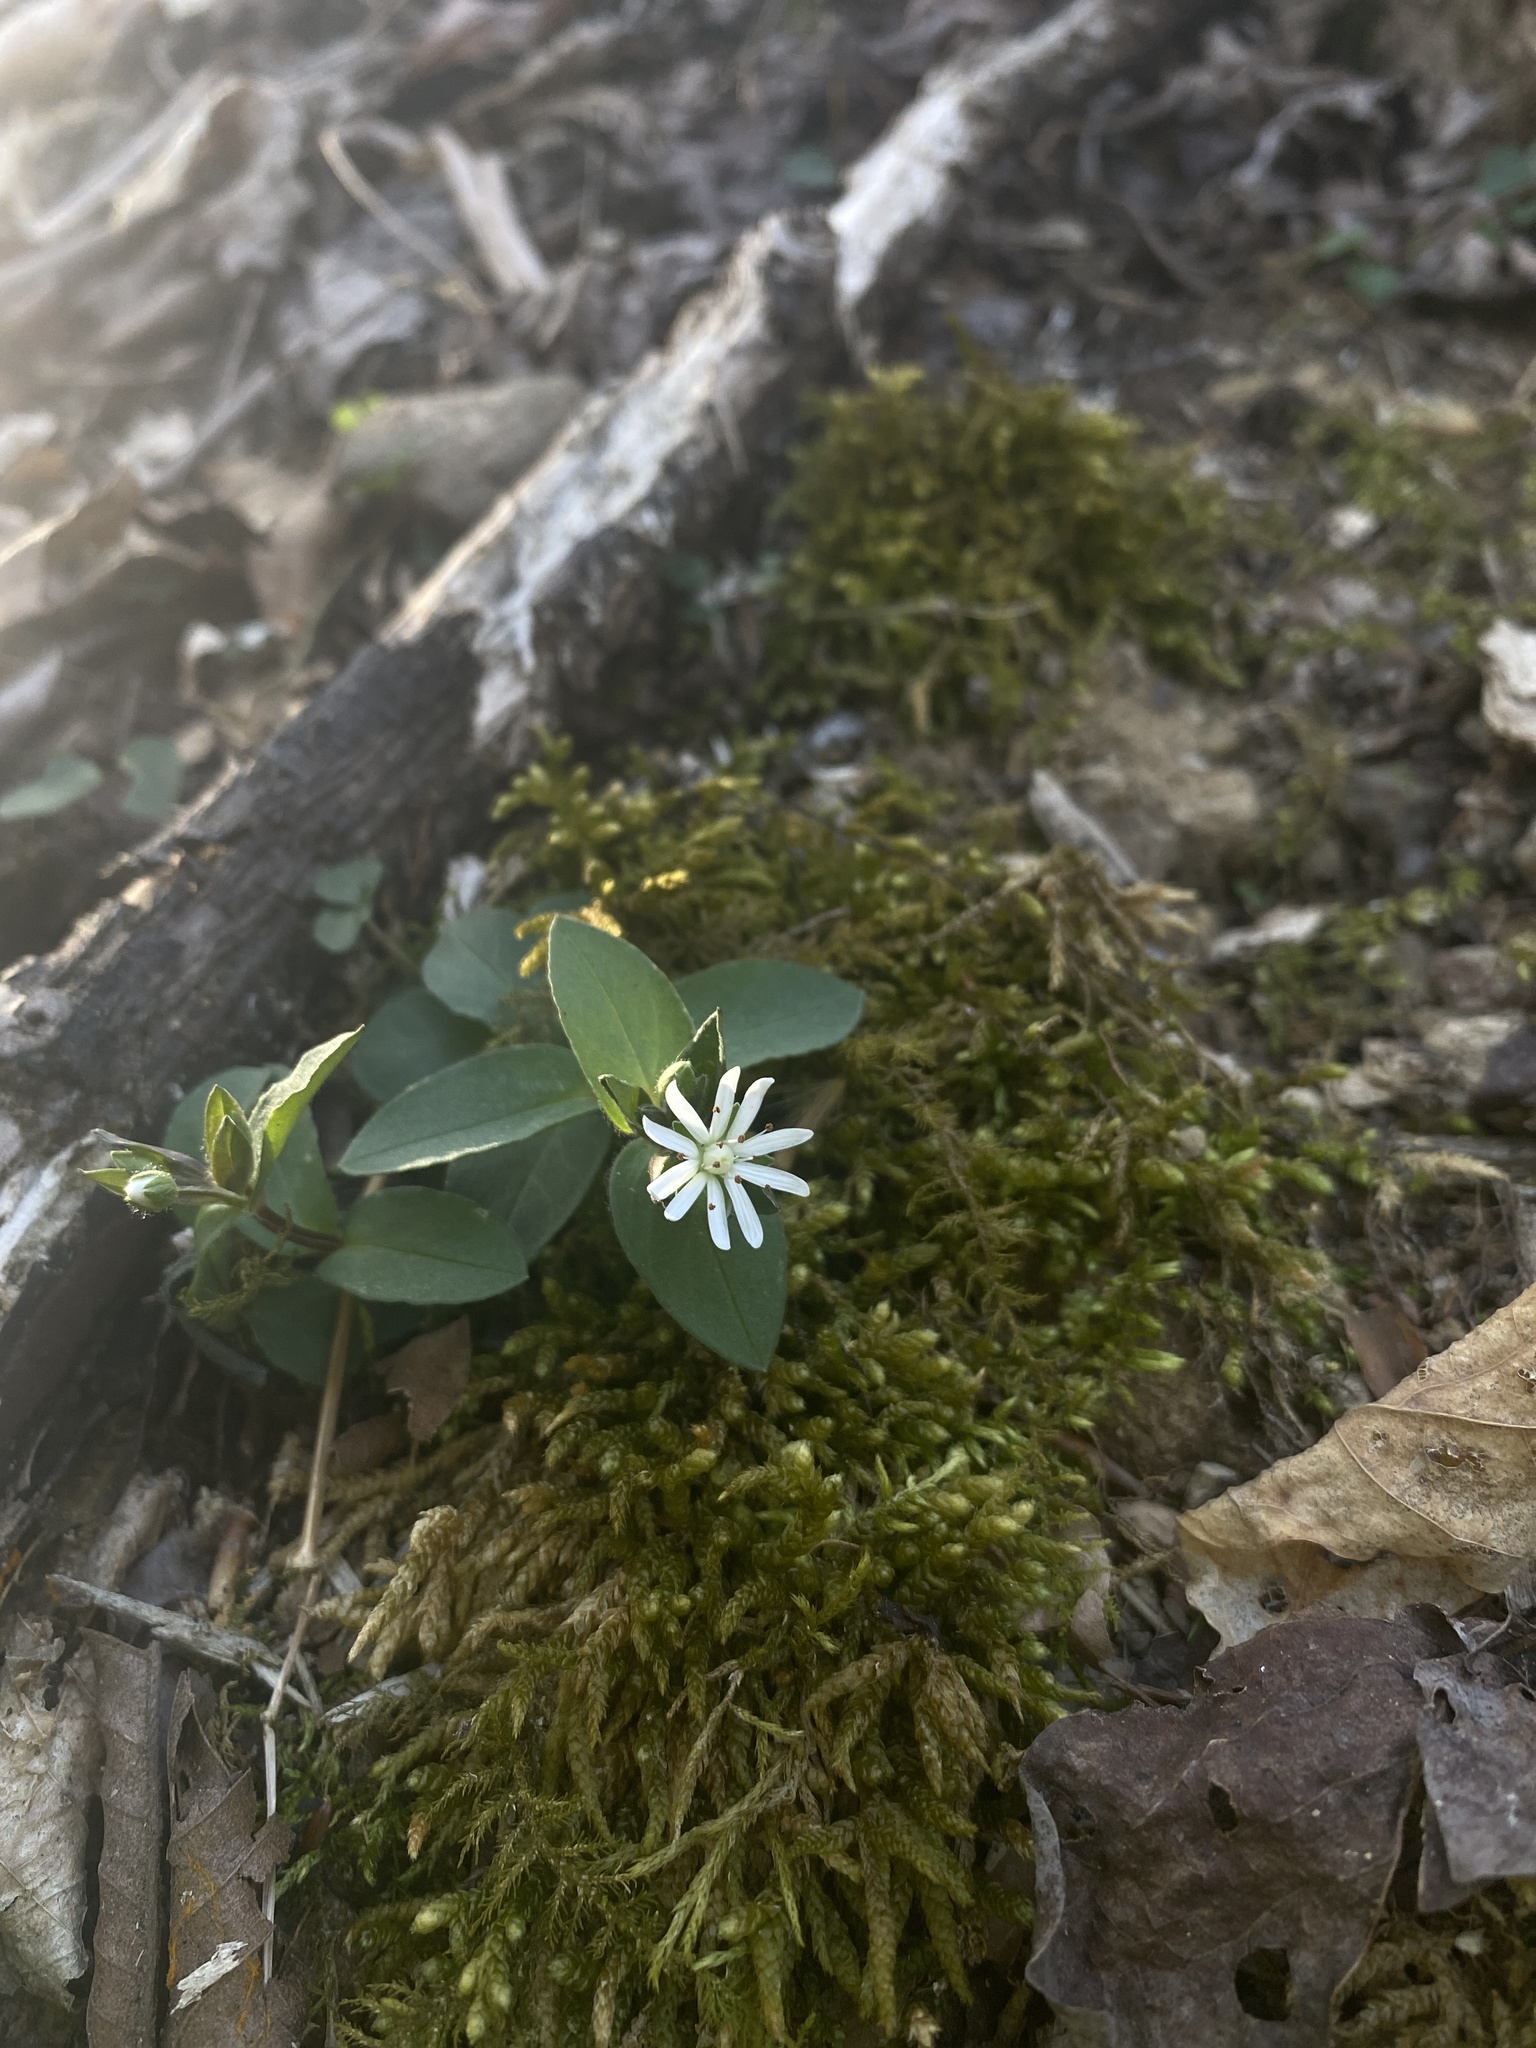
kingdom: Plantae
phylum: Tracheophyta
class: Magnoliopsida
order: Caryophyllales
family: Caryophyllaceae
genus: Stellaria
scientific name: Stellaria pubera
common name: Star chickweed
